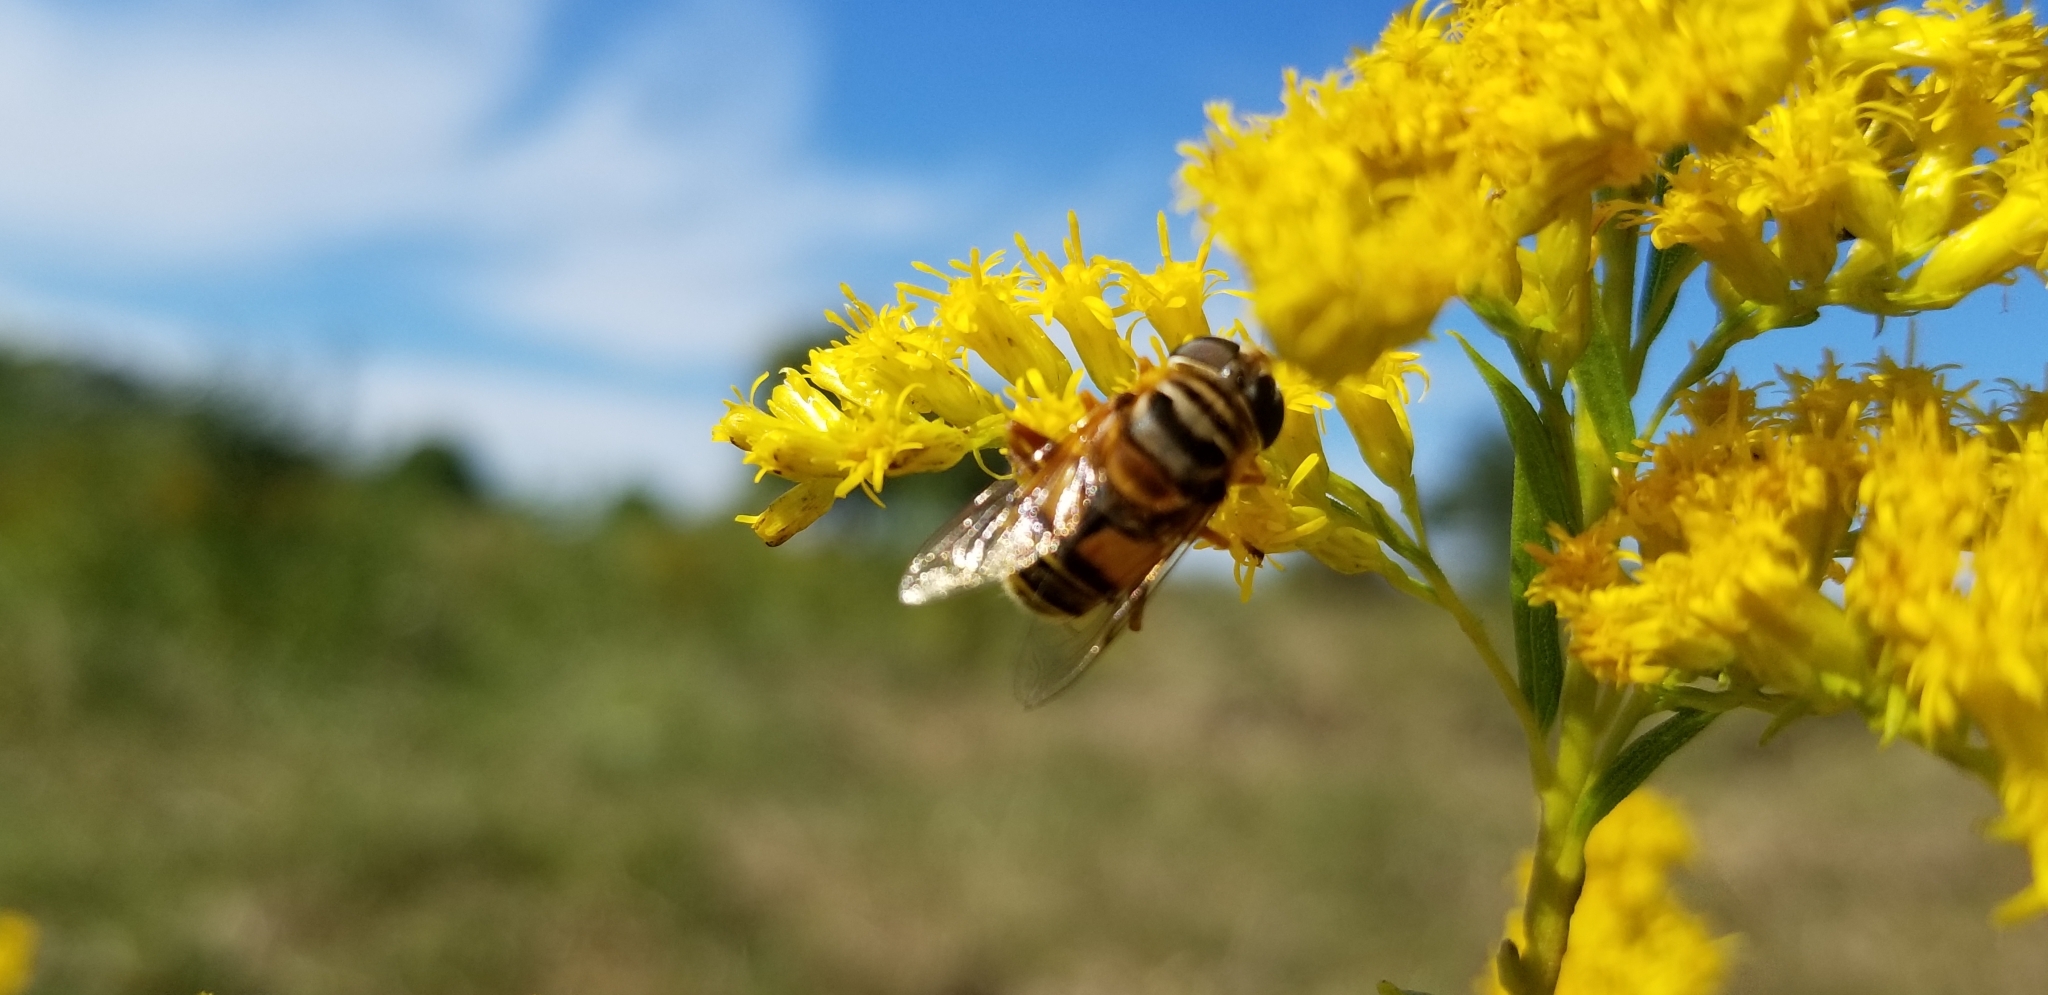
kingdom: Animalia
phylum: Arthropoda
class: Insecta
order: Diptera
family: Syrphidae
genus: Palpada
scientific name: Palpada vinetorum
